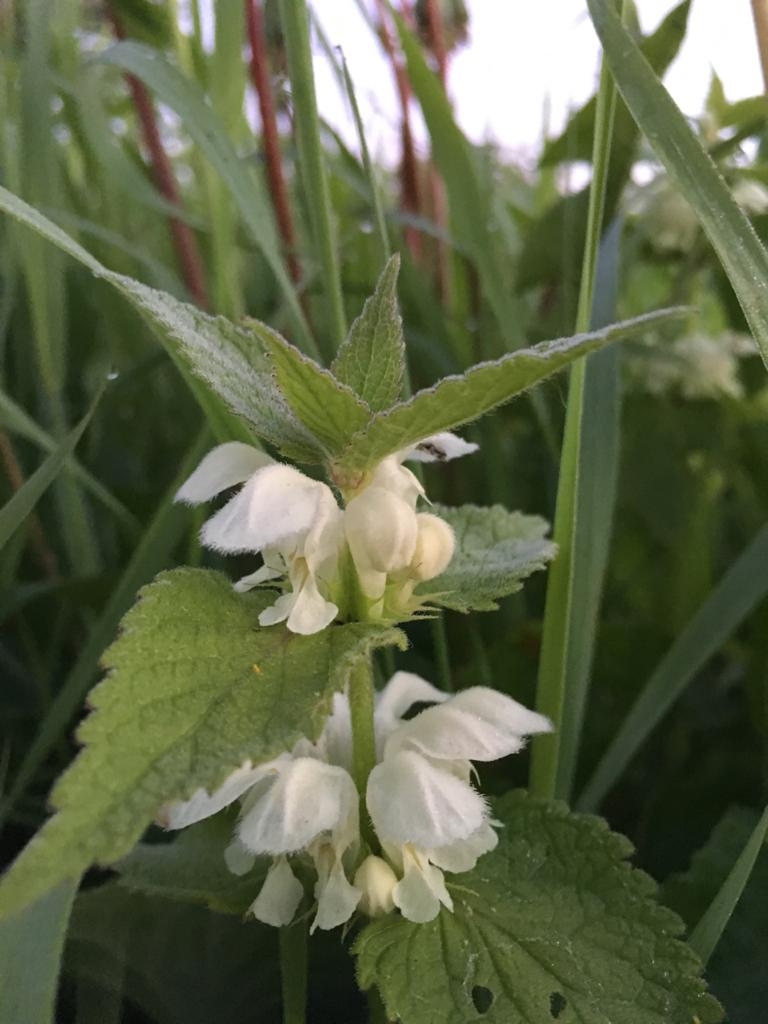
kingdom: Plantae
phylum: Tracheophyta
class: Magnoliopsida
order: Lamiales
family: Lamiaceae
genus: Lamium
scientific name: Lamium album
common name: White dead-nettle
